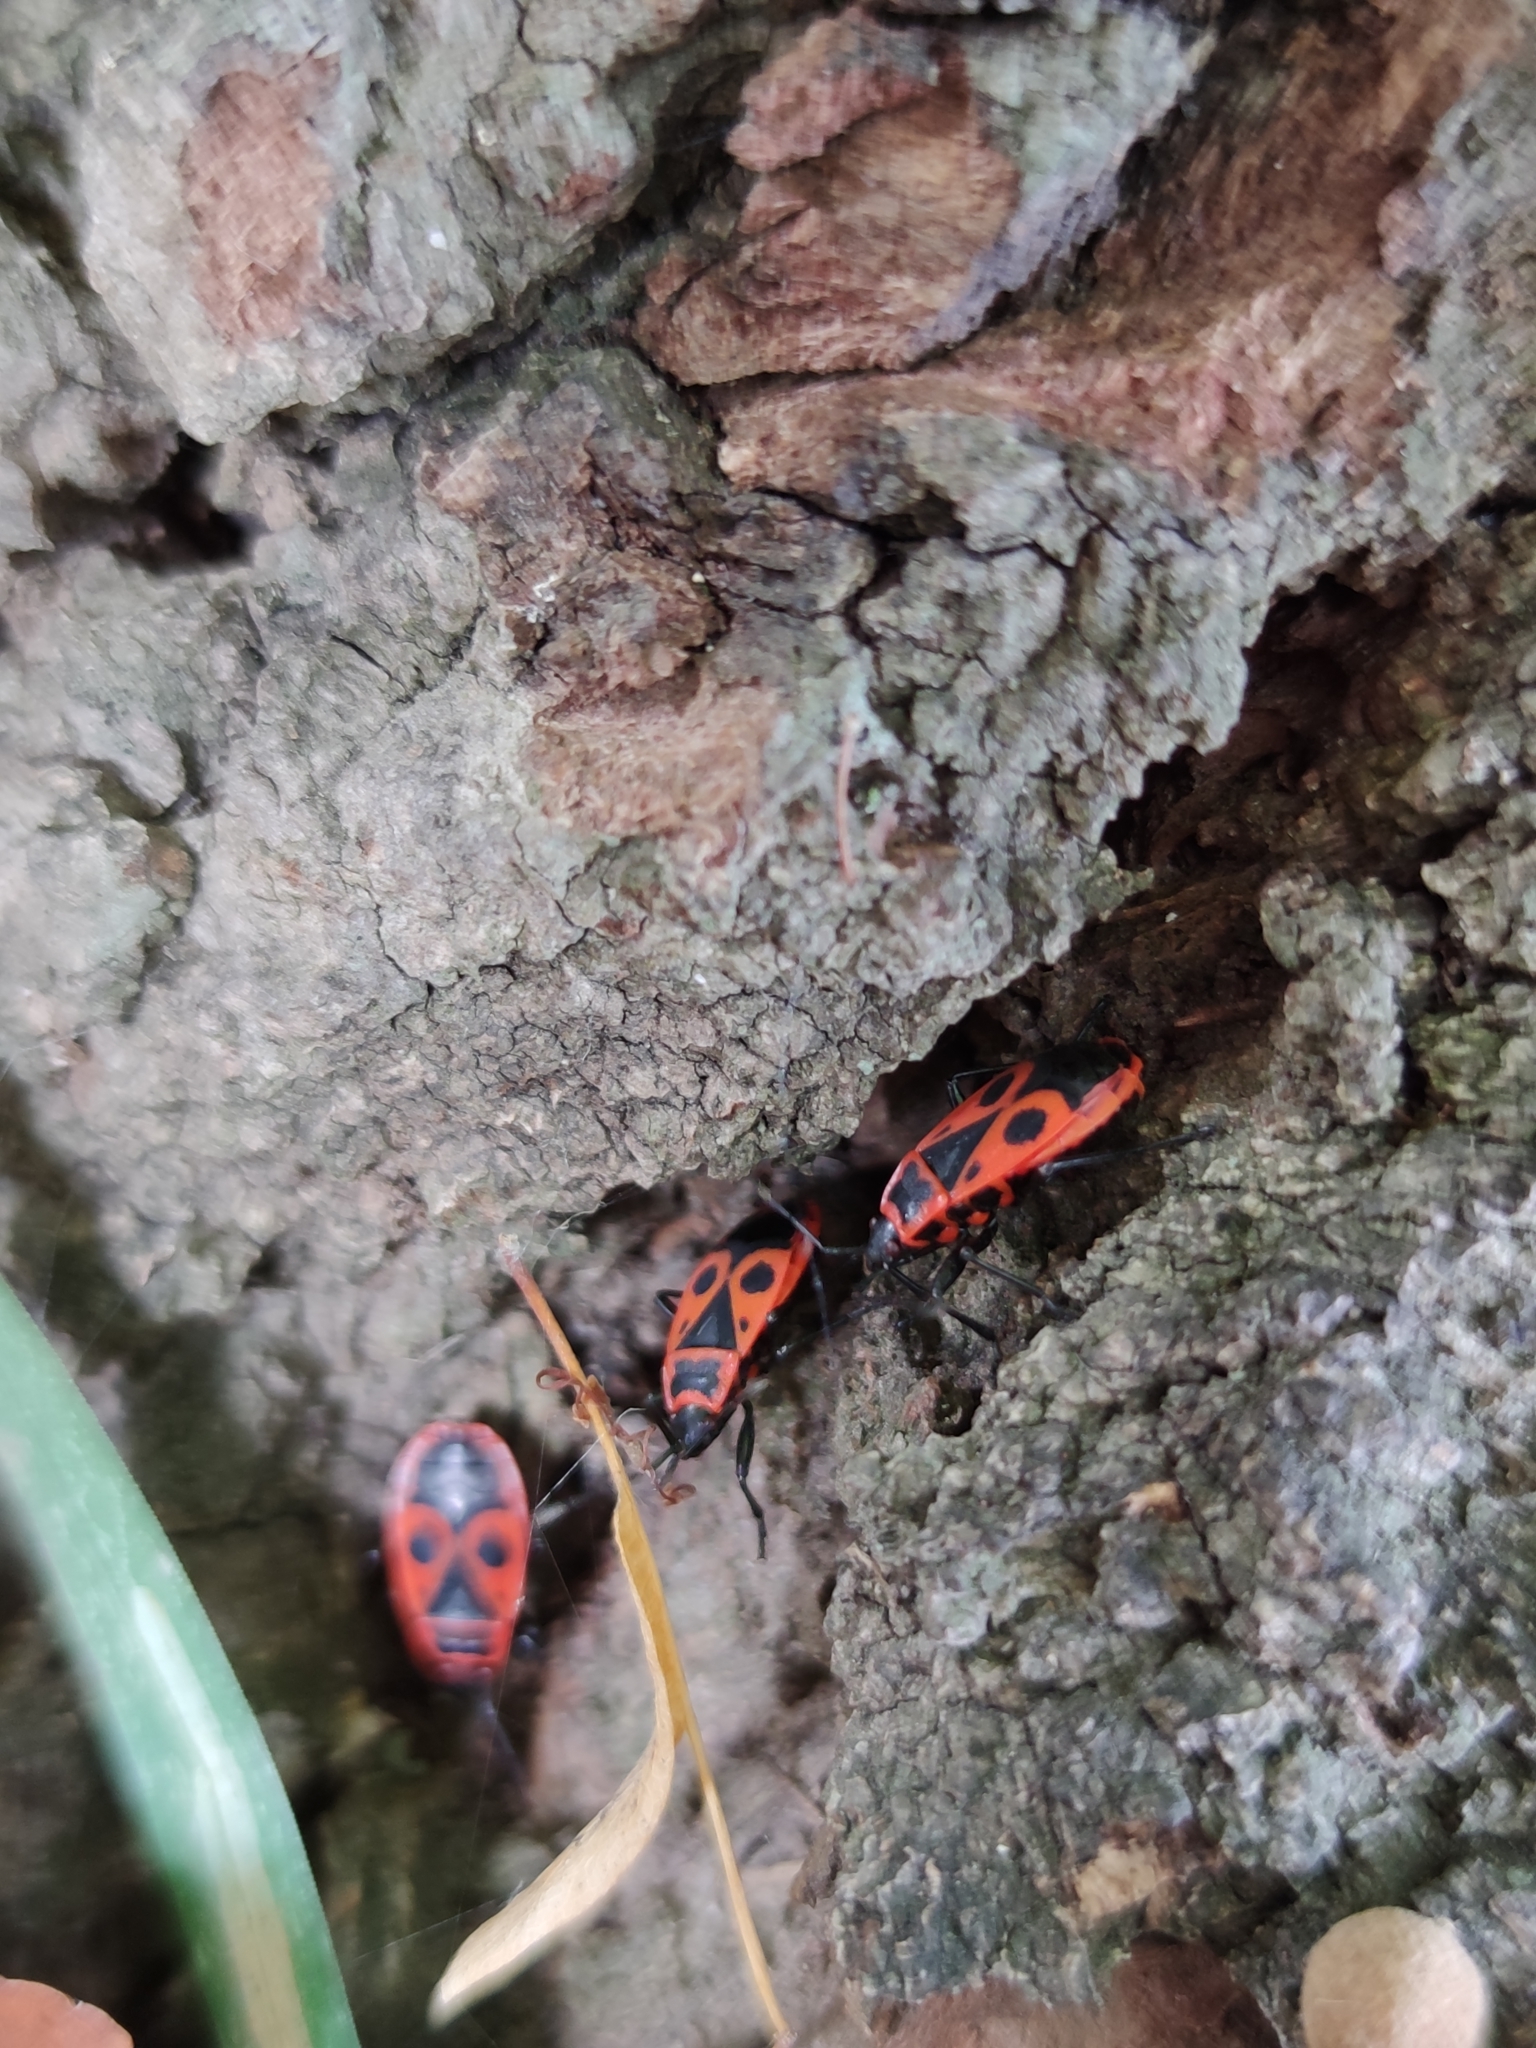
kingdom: Animalia
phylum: Arthropoda
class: Insecta
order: Hemiptera
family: Pyrrhocoridae
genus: Pyrrhocoris
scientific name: Pyrrhocoris apterus
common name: Firebug
